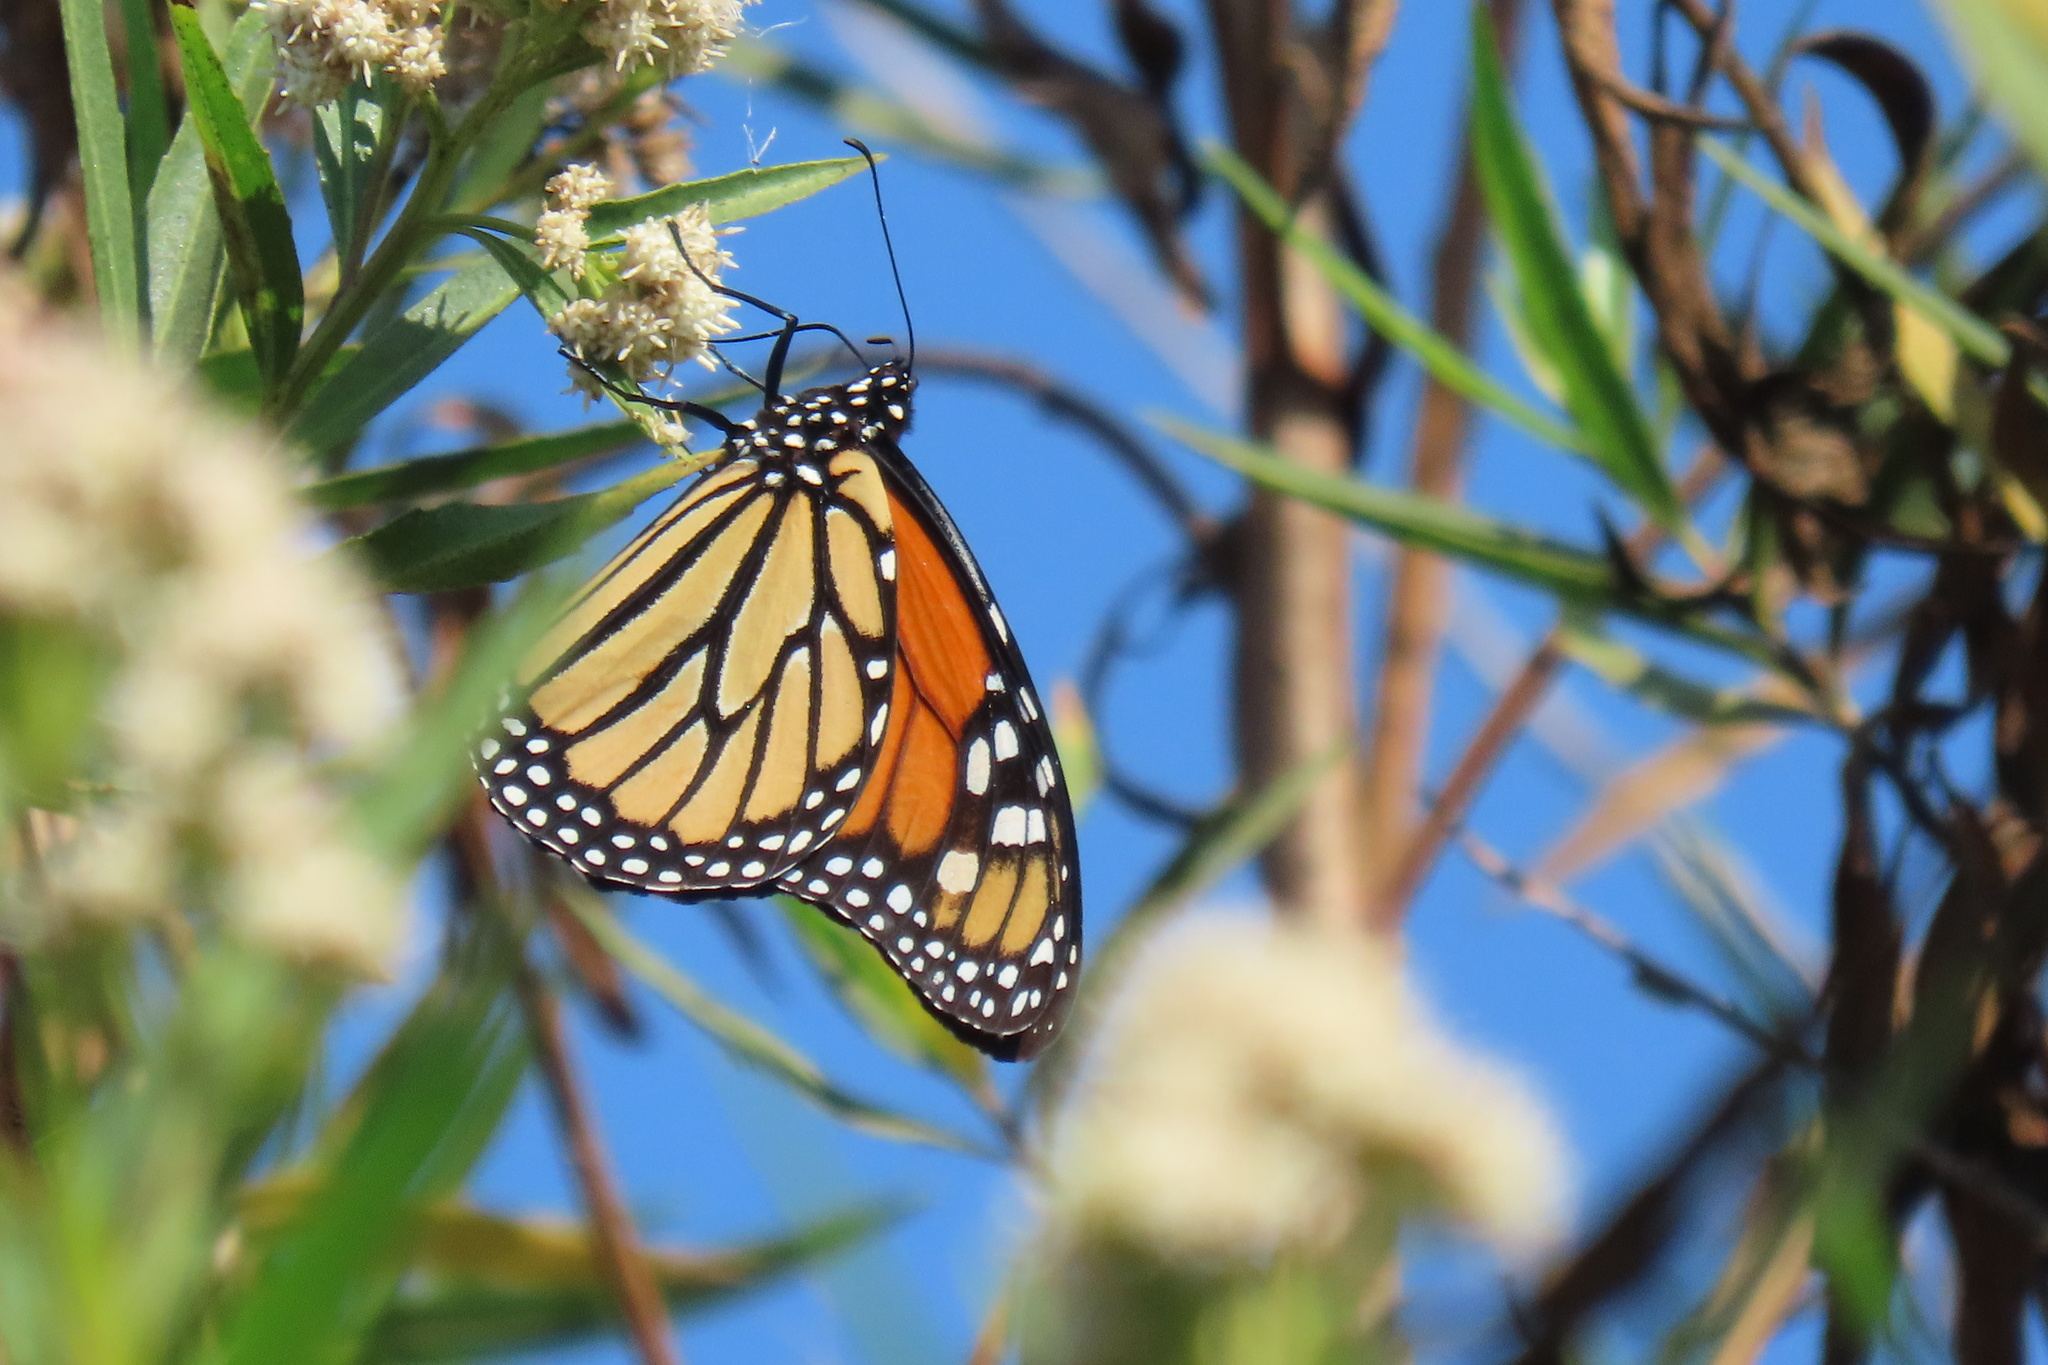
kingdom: Animalia
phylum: Arthropoda
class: Insecta
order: Lepidoptera
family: Nymphalidae
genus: Danaus
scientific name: Danaus plexippus
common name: Monarch
